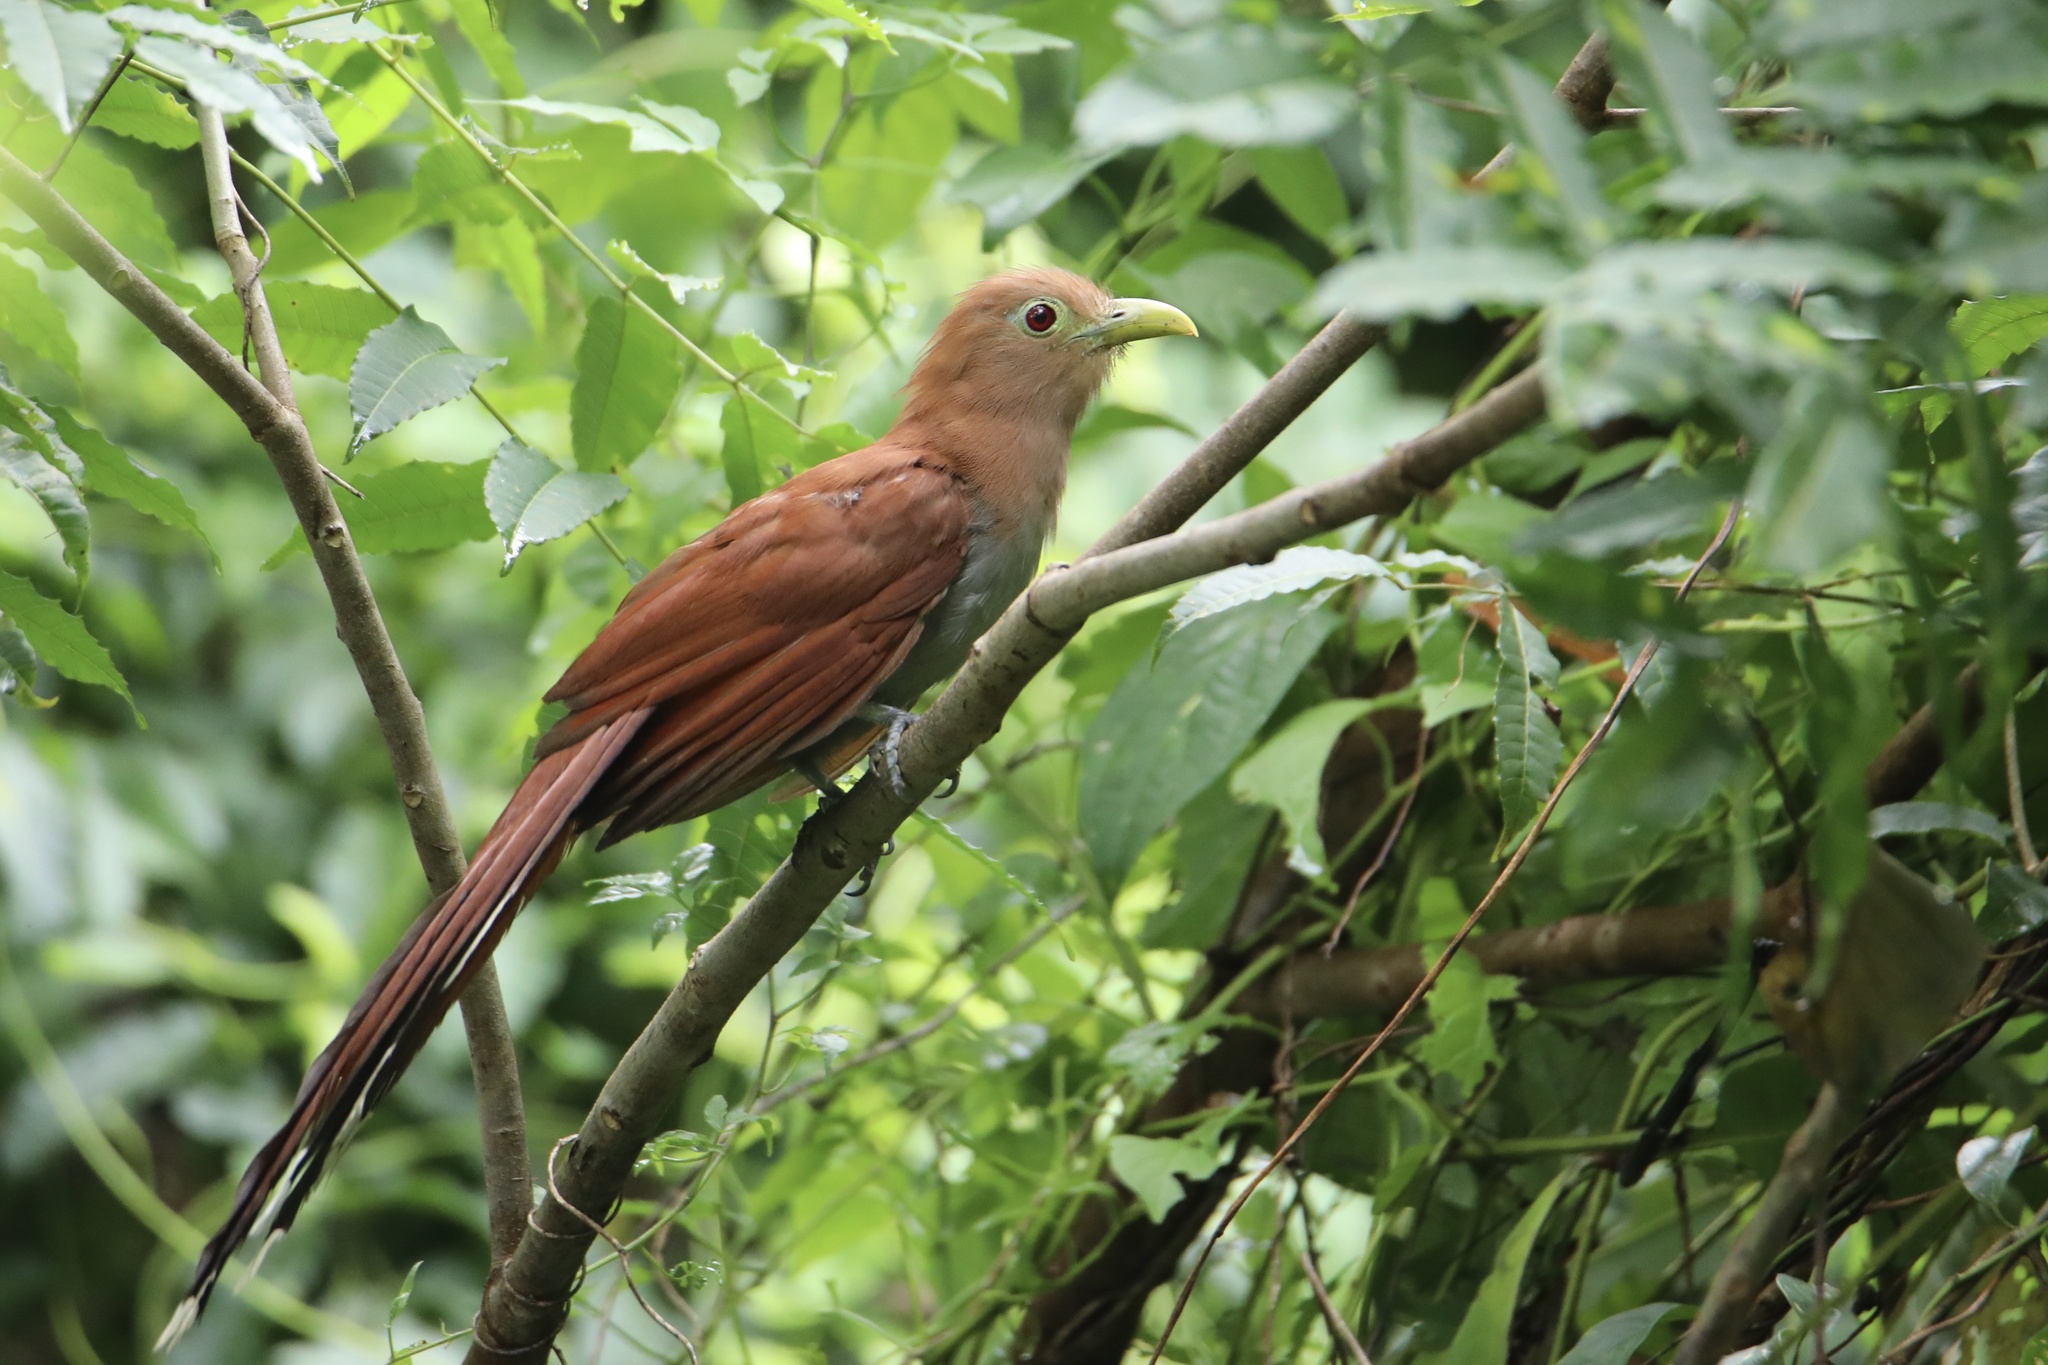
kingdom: Animalia
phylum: Chordata
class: Aves
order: Cuculiformes
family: Cuculidae
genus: Piaya
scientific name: Piaya cayana
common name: Squirrel cuckoo
